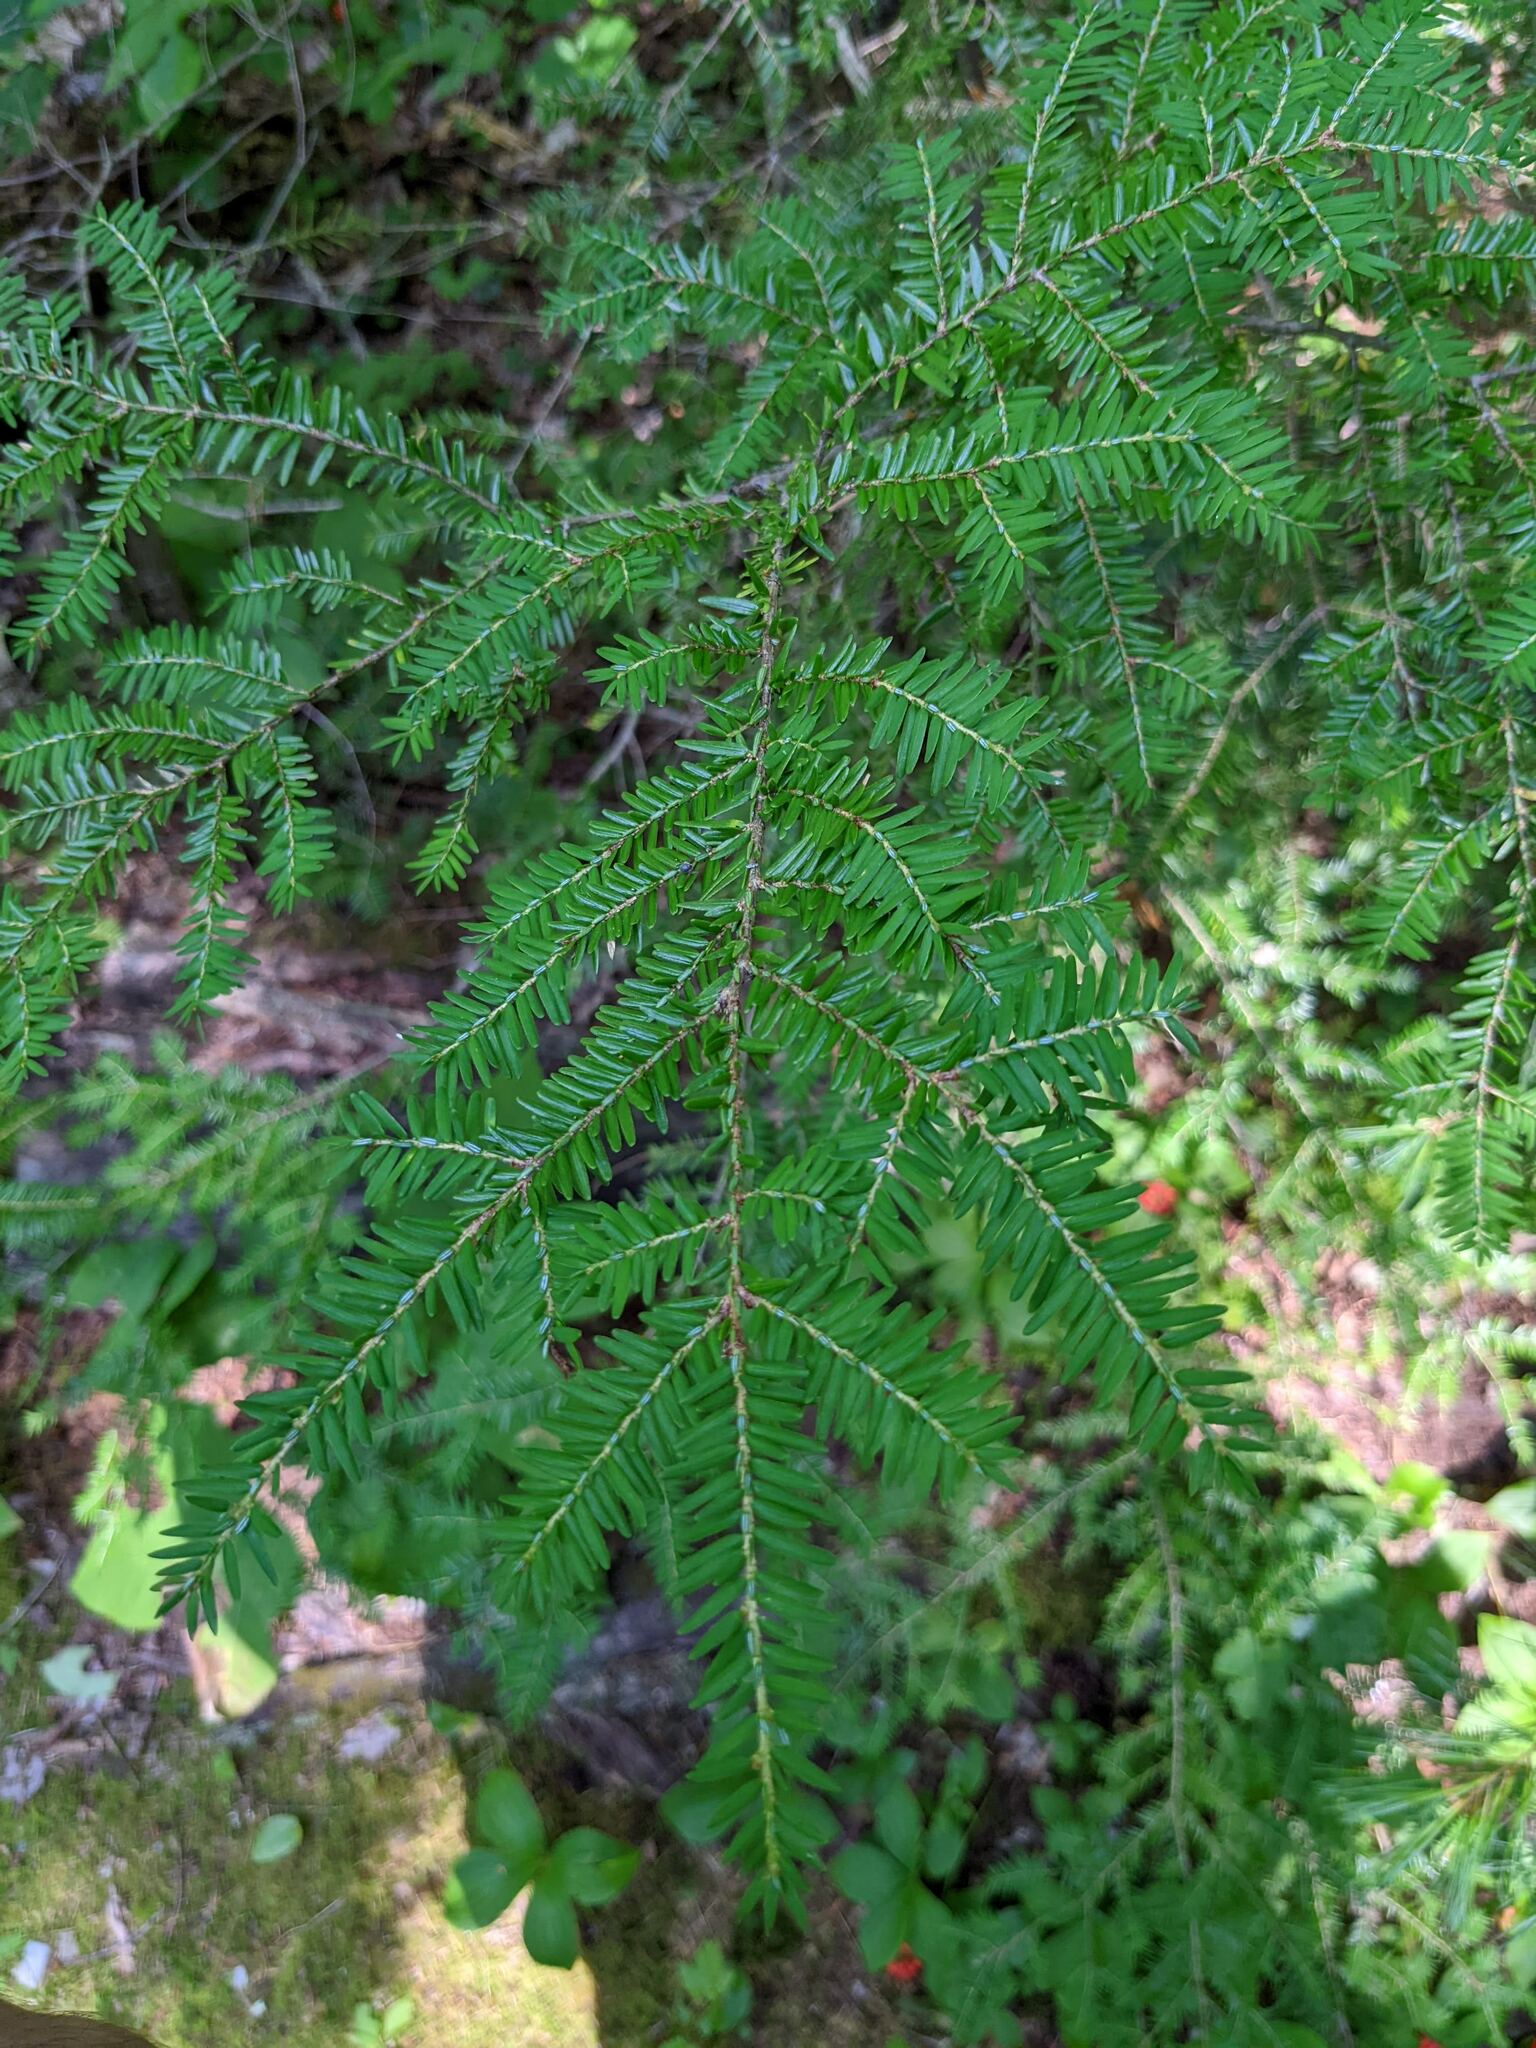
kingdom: Plantae
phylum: Tracheophyta
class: Pinopsida
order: Pinales
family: Pinaceae
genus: Tsuga
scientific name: Tsuga canadensis
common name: Eastern hemlock
